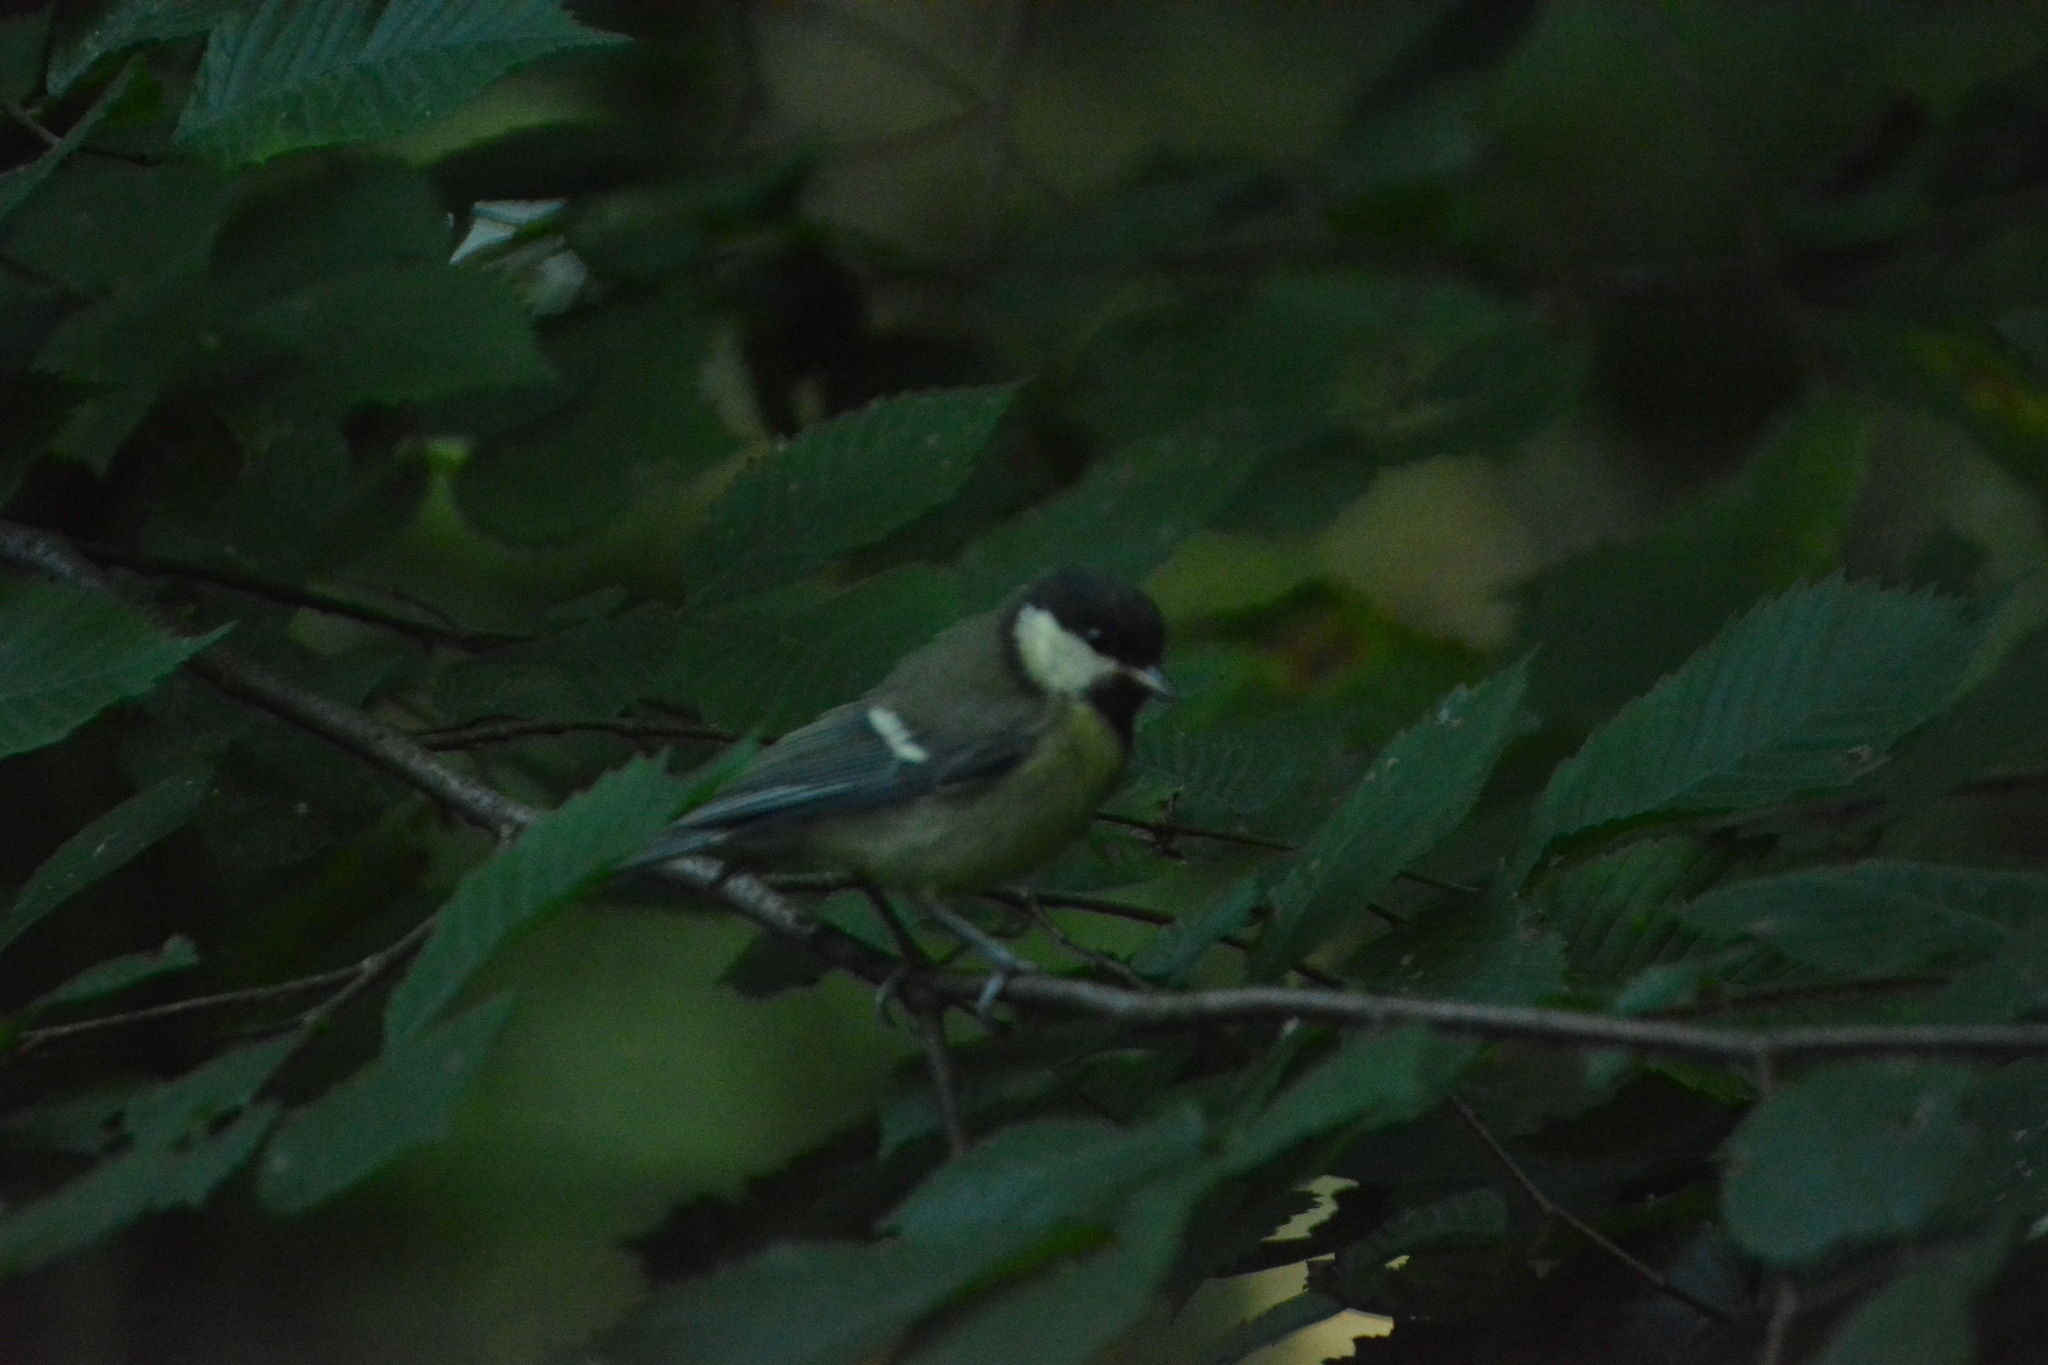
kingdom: Animalia
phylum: Chordata
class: Aves
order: Passeriformes
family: Paridae
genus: Parus
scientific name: Parus major
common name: Great tit
